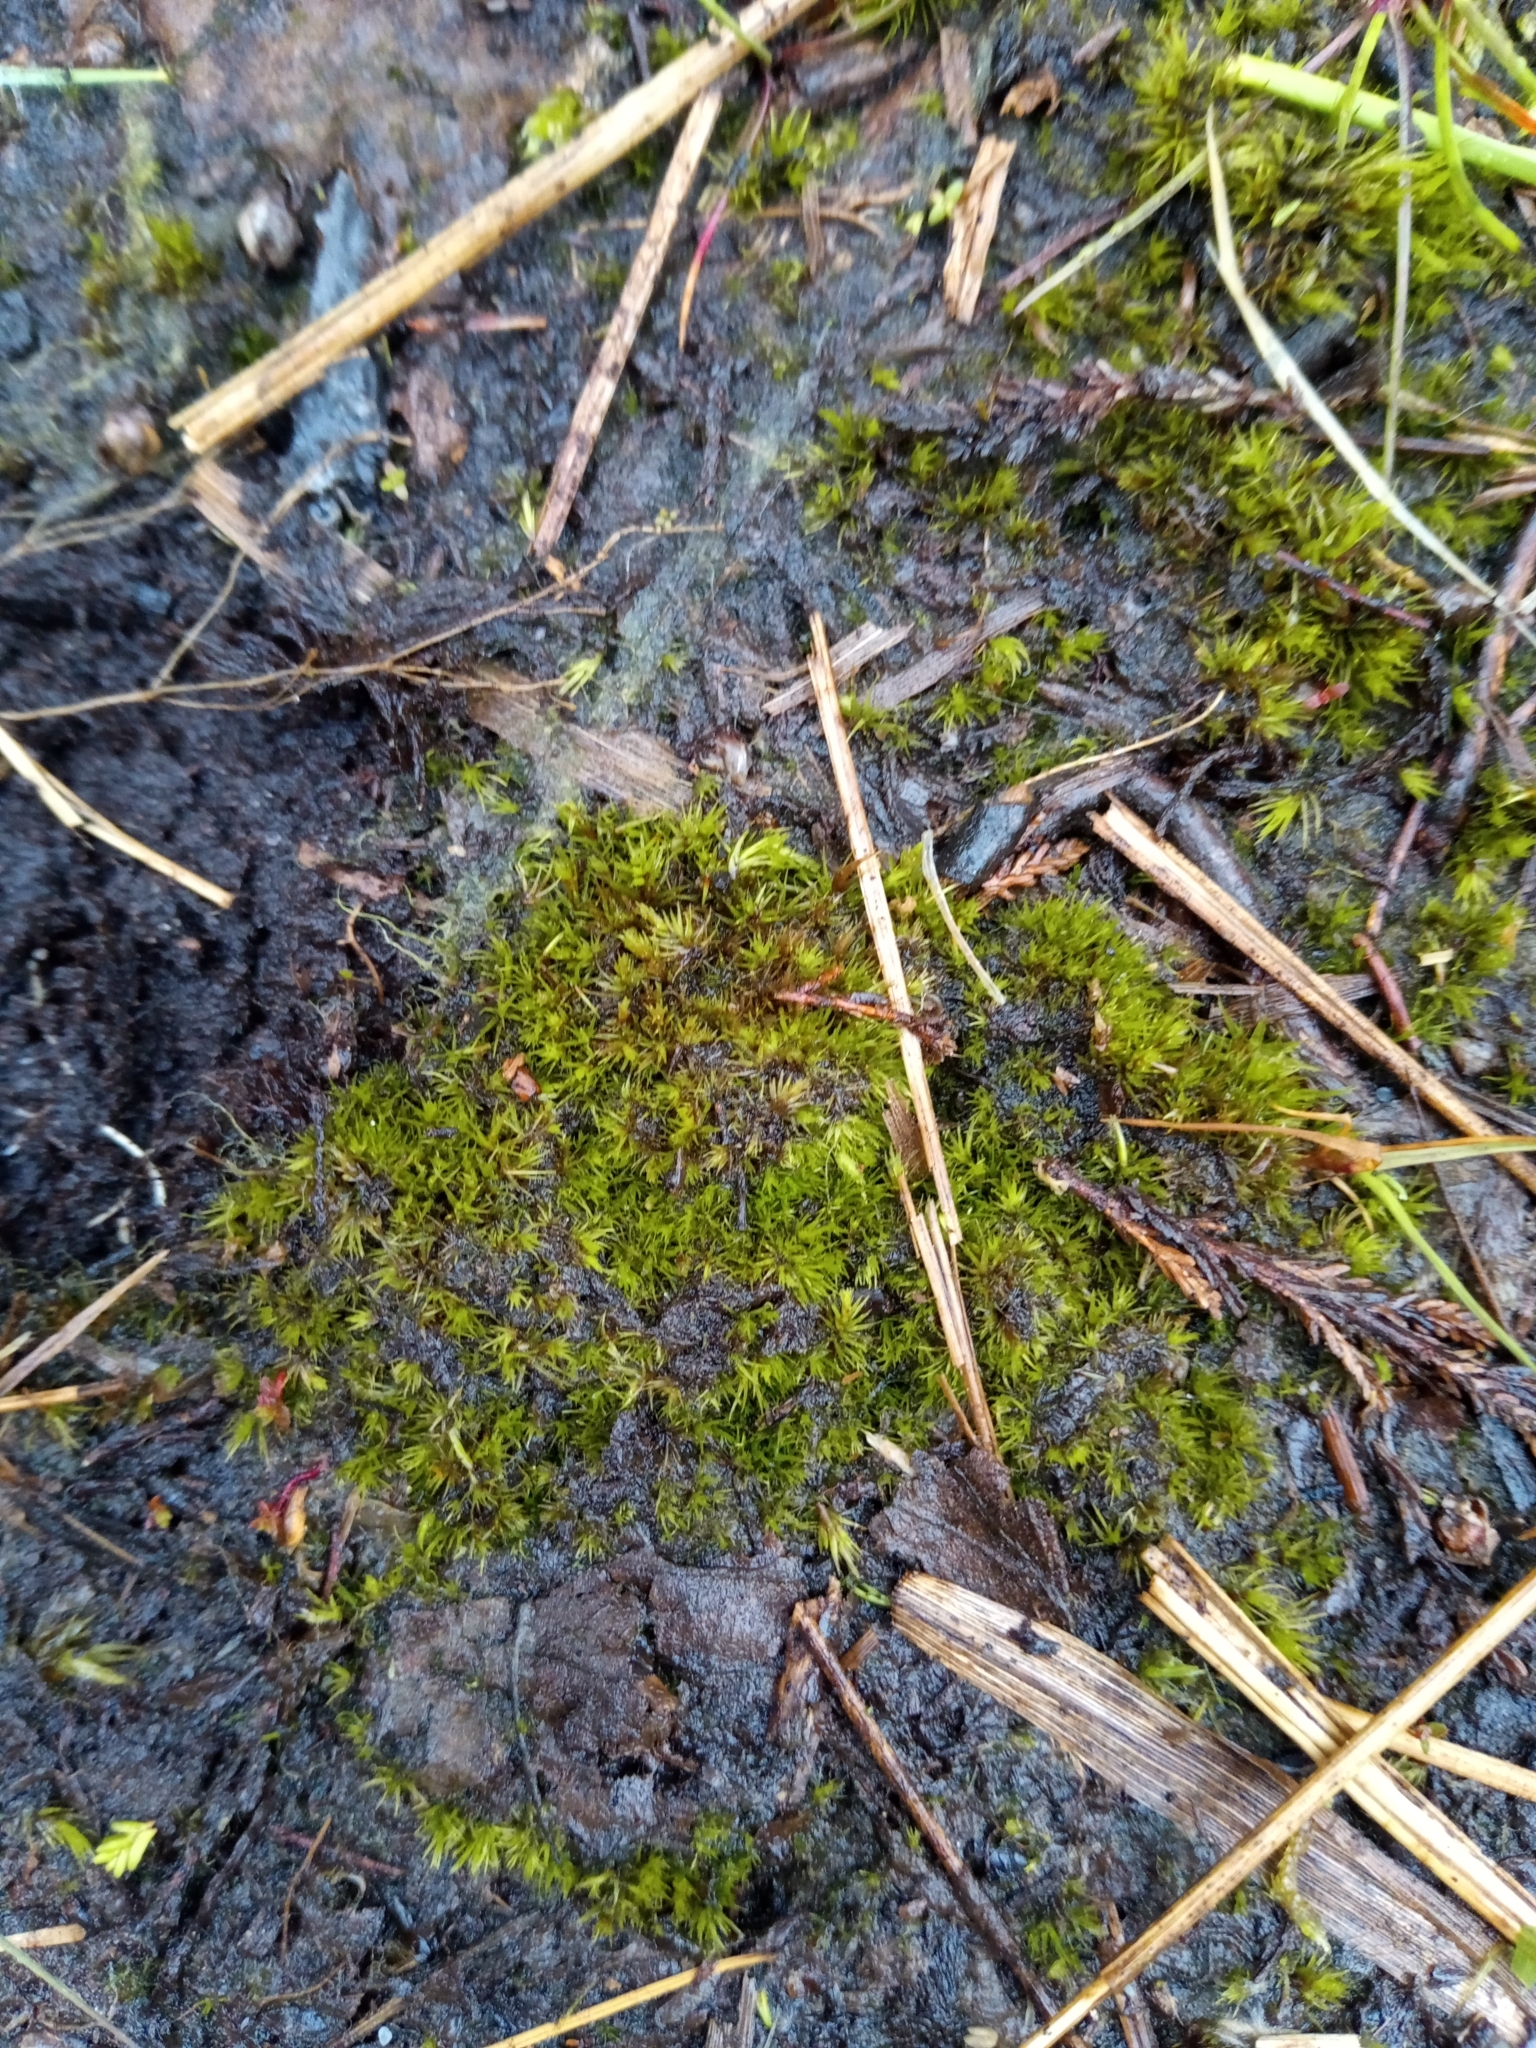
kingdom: Plantae
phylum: Bryophyta
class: Bryopsida
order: Dicranales
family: Leucobryaceae
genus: Campylopus
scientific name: Campylopus pyriformis
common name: Dwarf swan-neck moss
